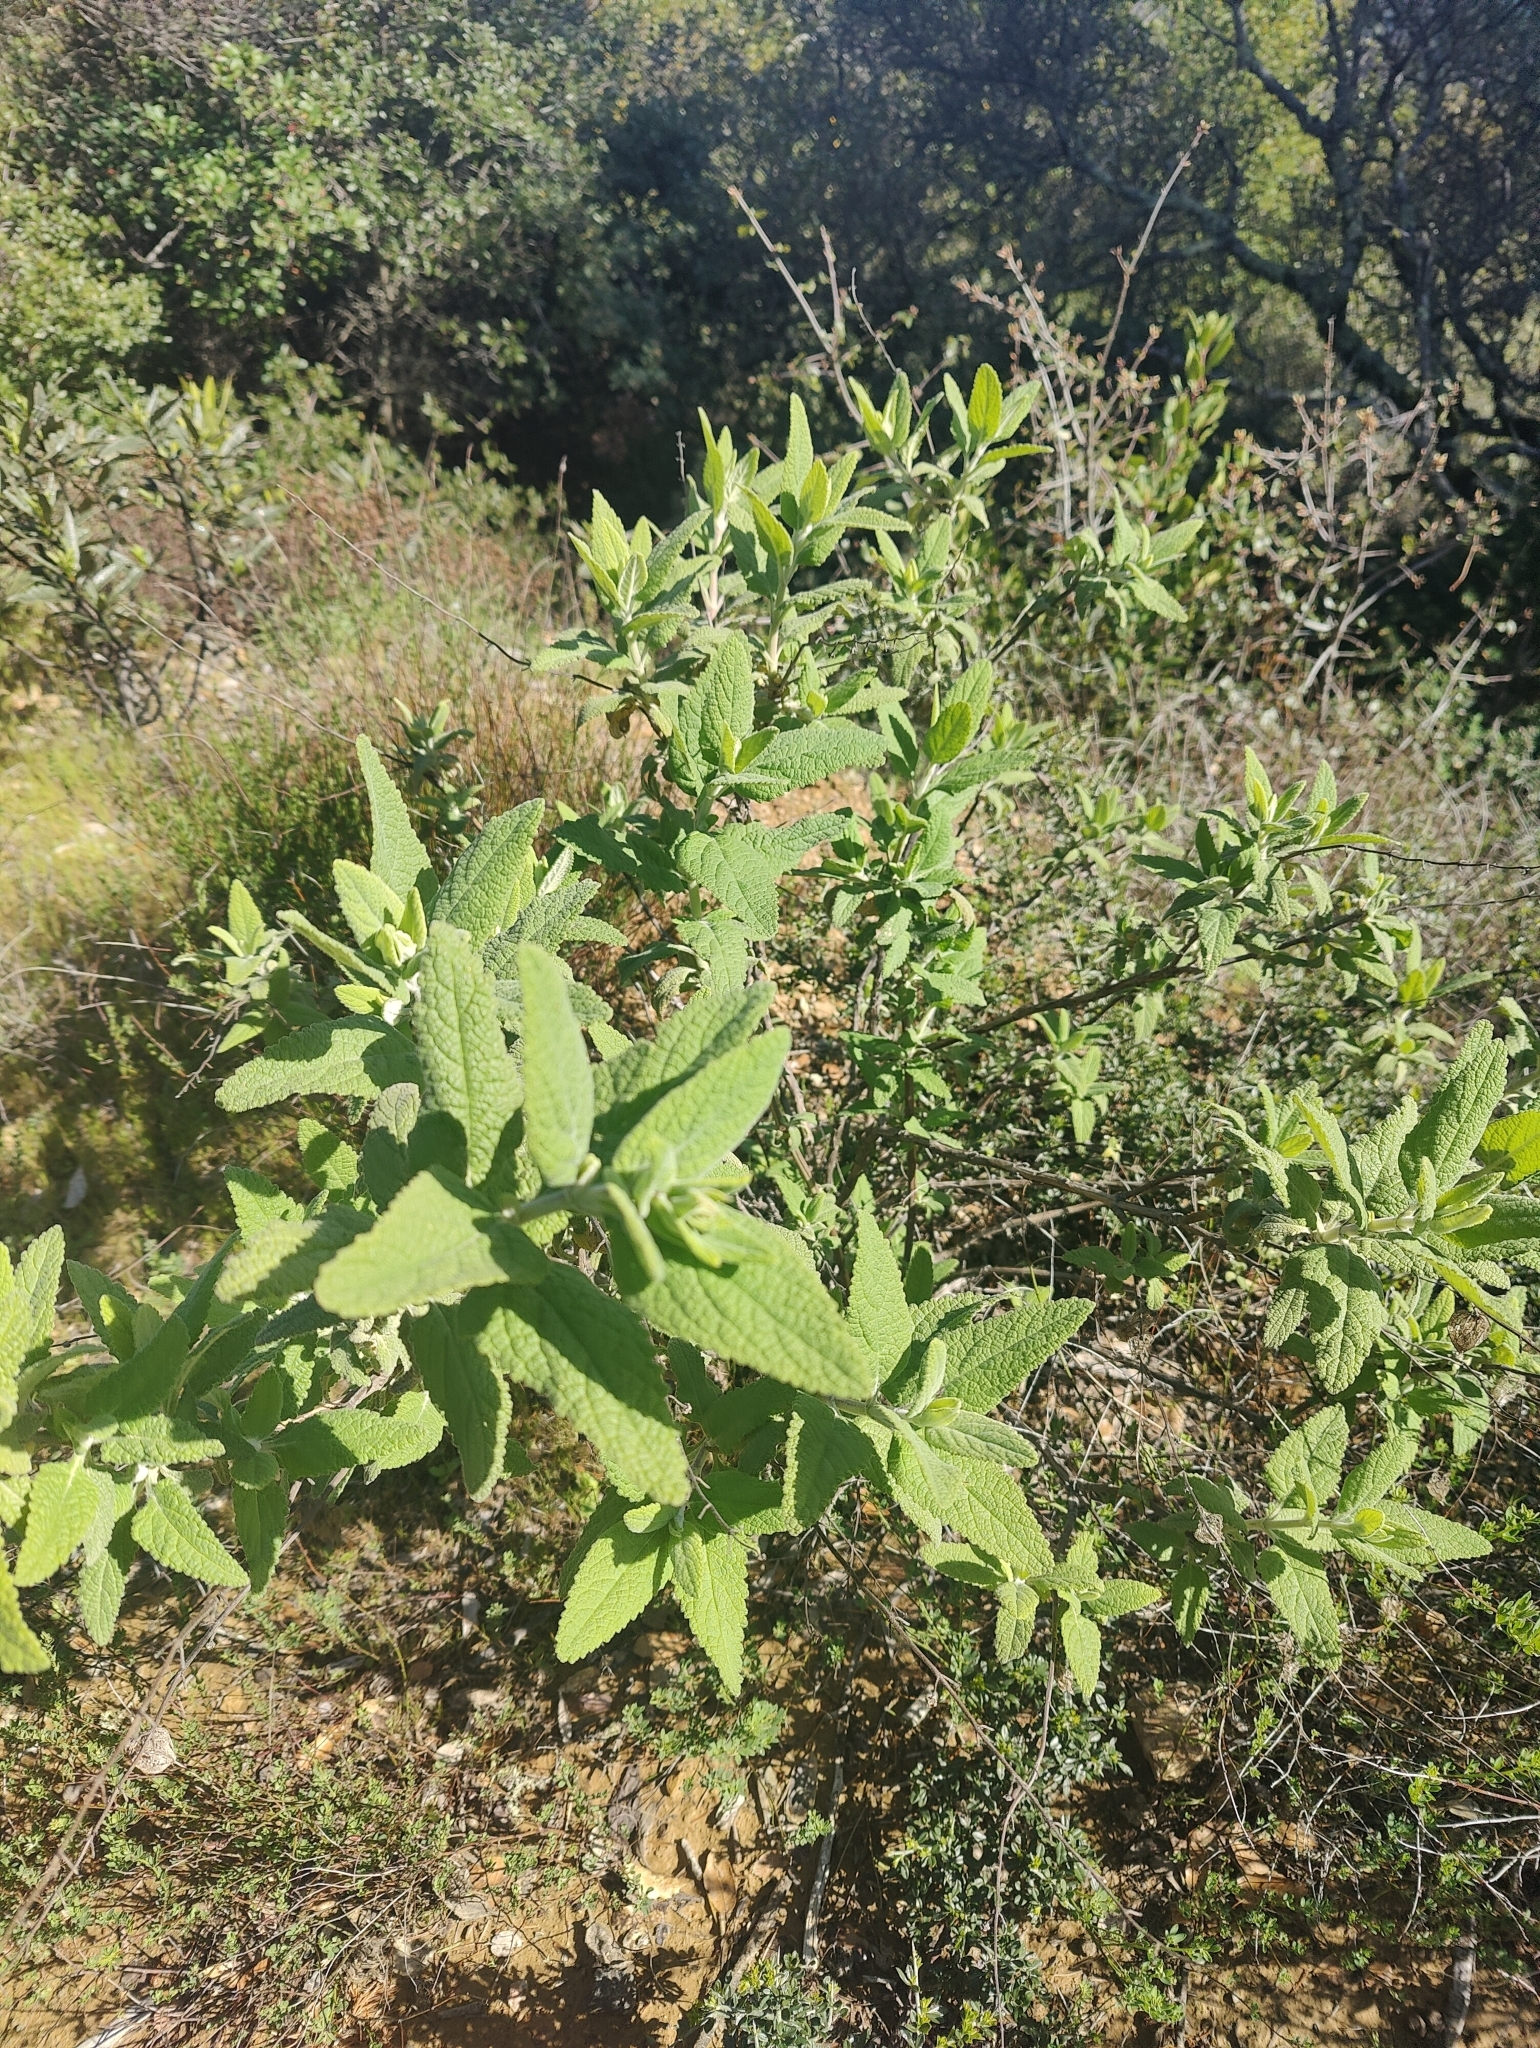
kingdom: Plantae
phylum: Tracheophyta
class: Magnoliopsida
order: Lamiales
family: Lamiaceae
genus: Lepechinia
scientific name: Lepechinia calycina
